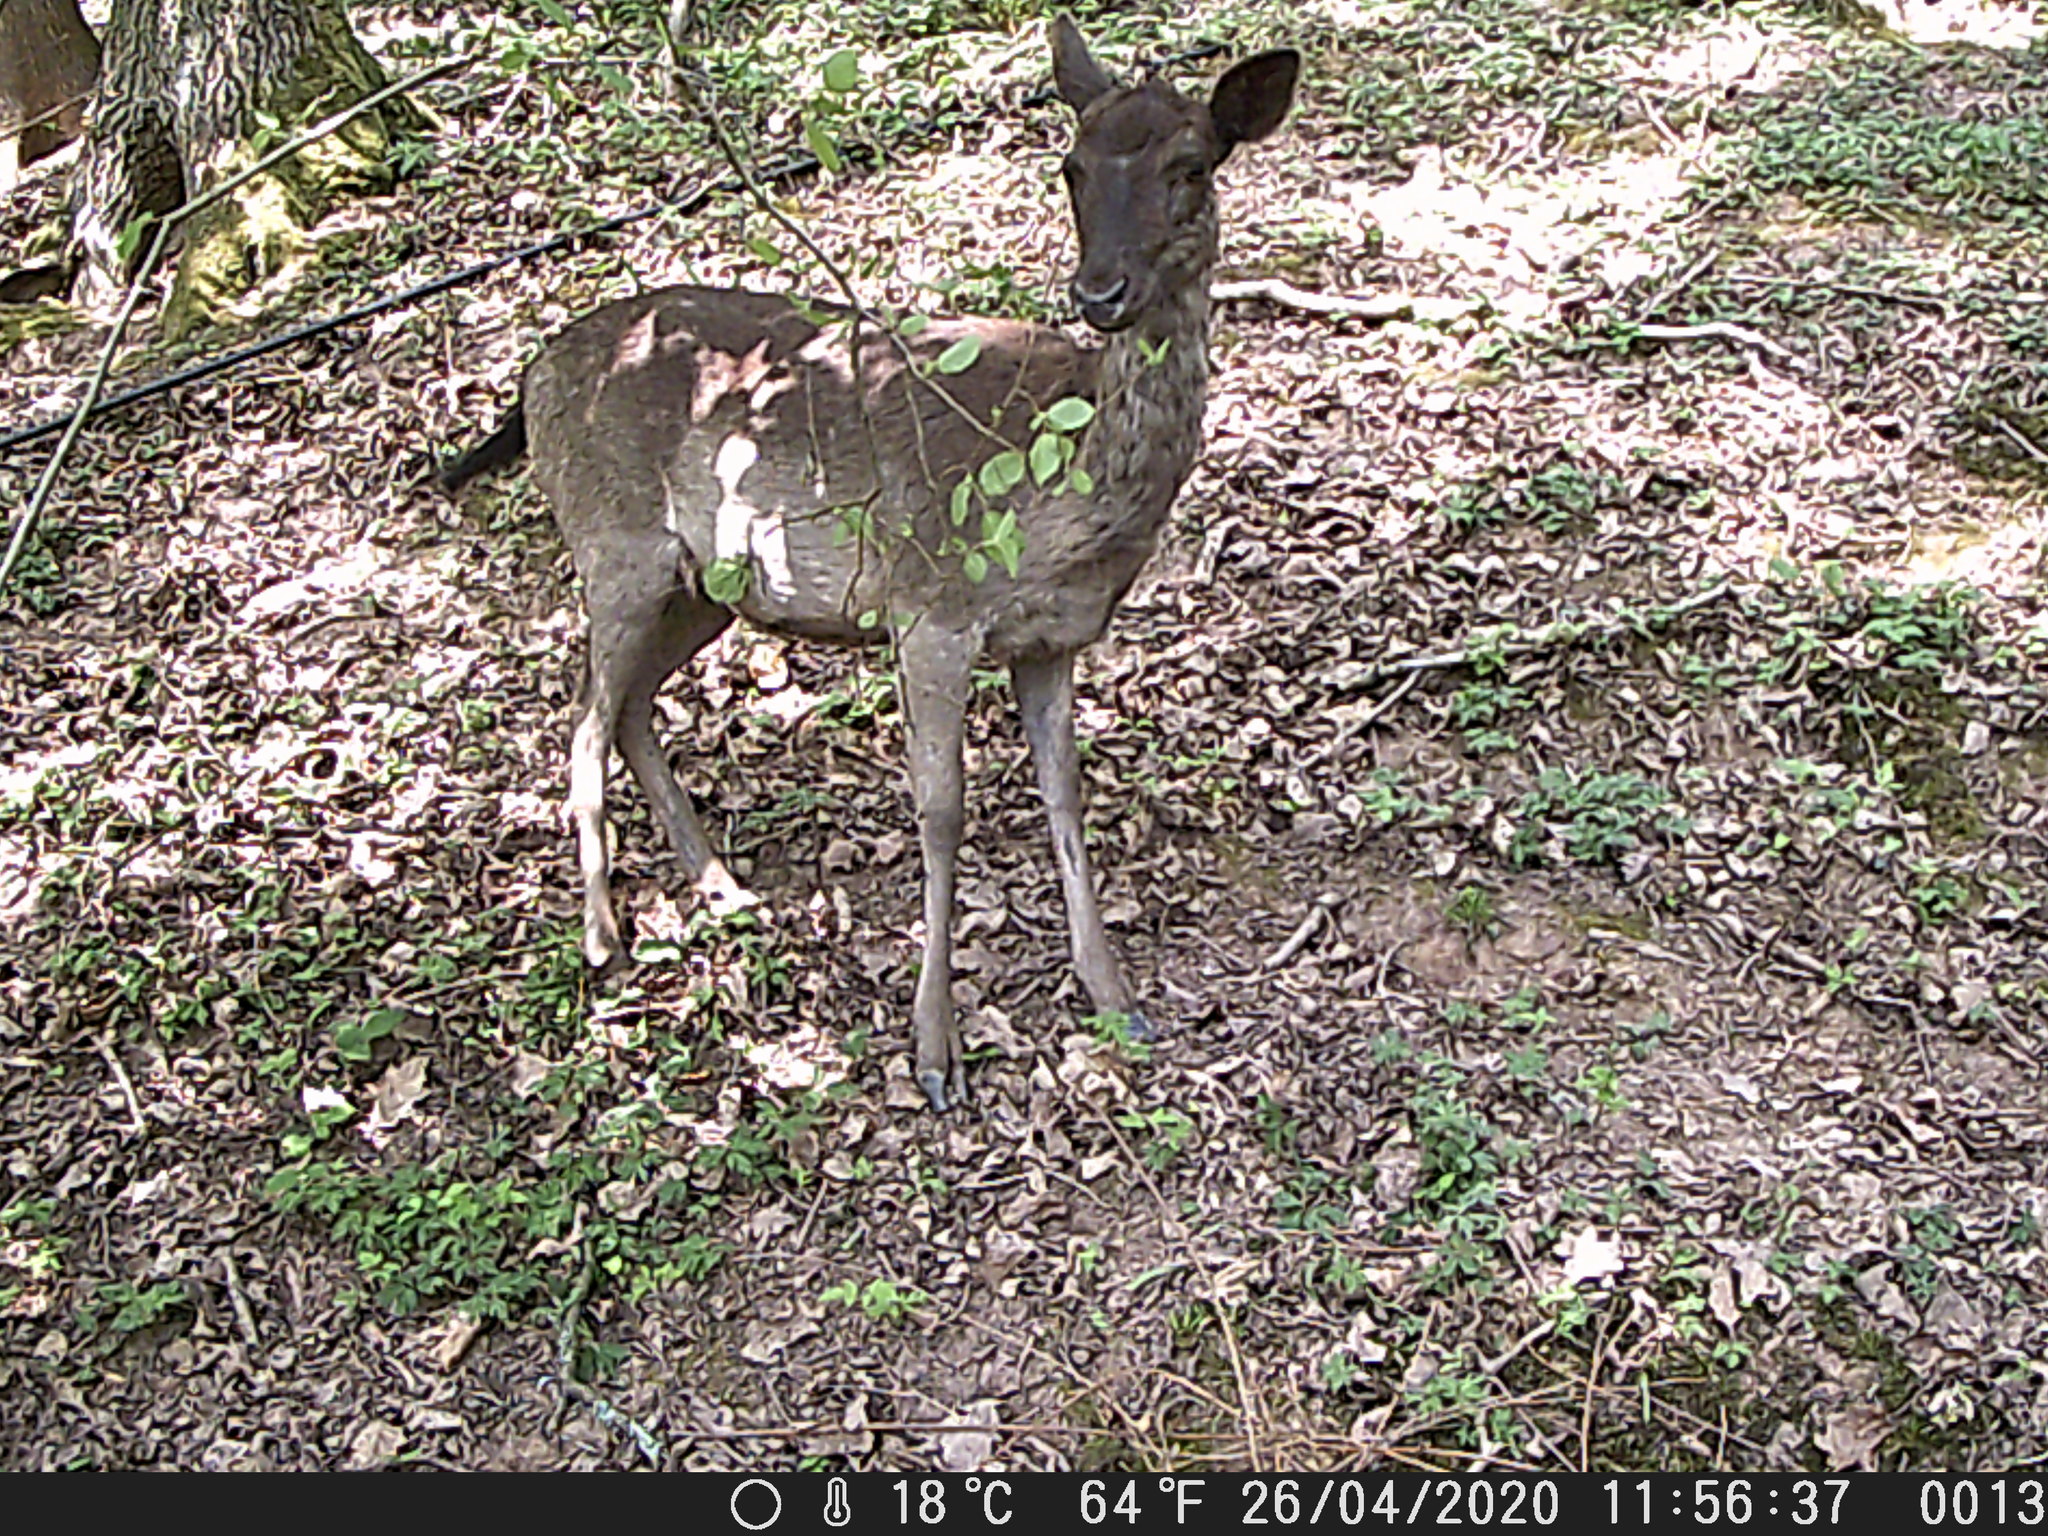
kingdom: Animalia
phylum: Chordata
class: Mammalia
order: Artiodactyla
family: Cervidae
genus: Dama
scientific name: Dama dama
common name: Fallow deer
